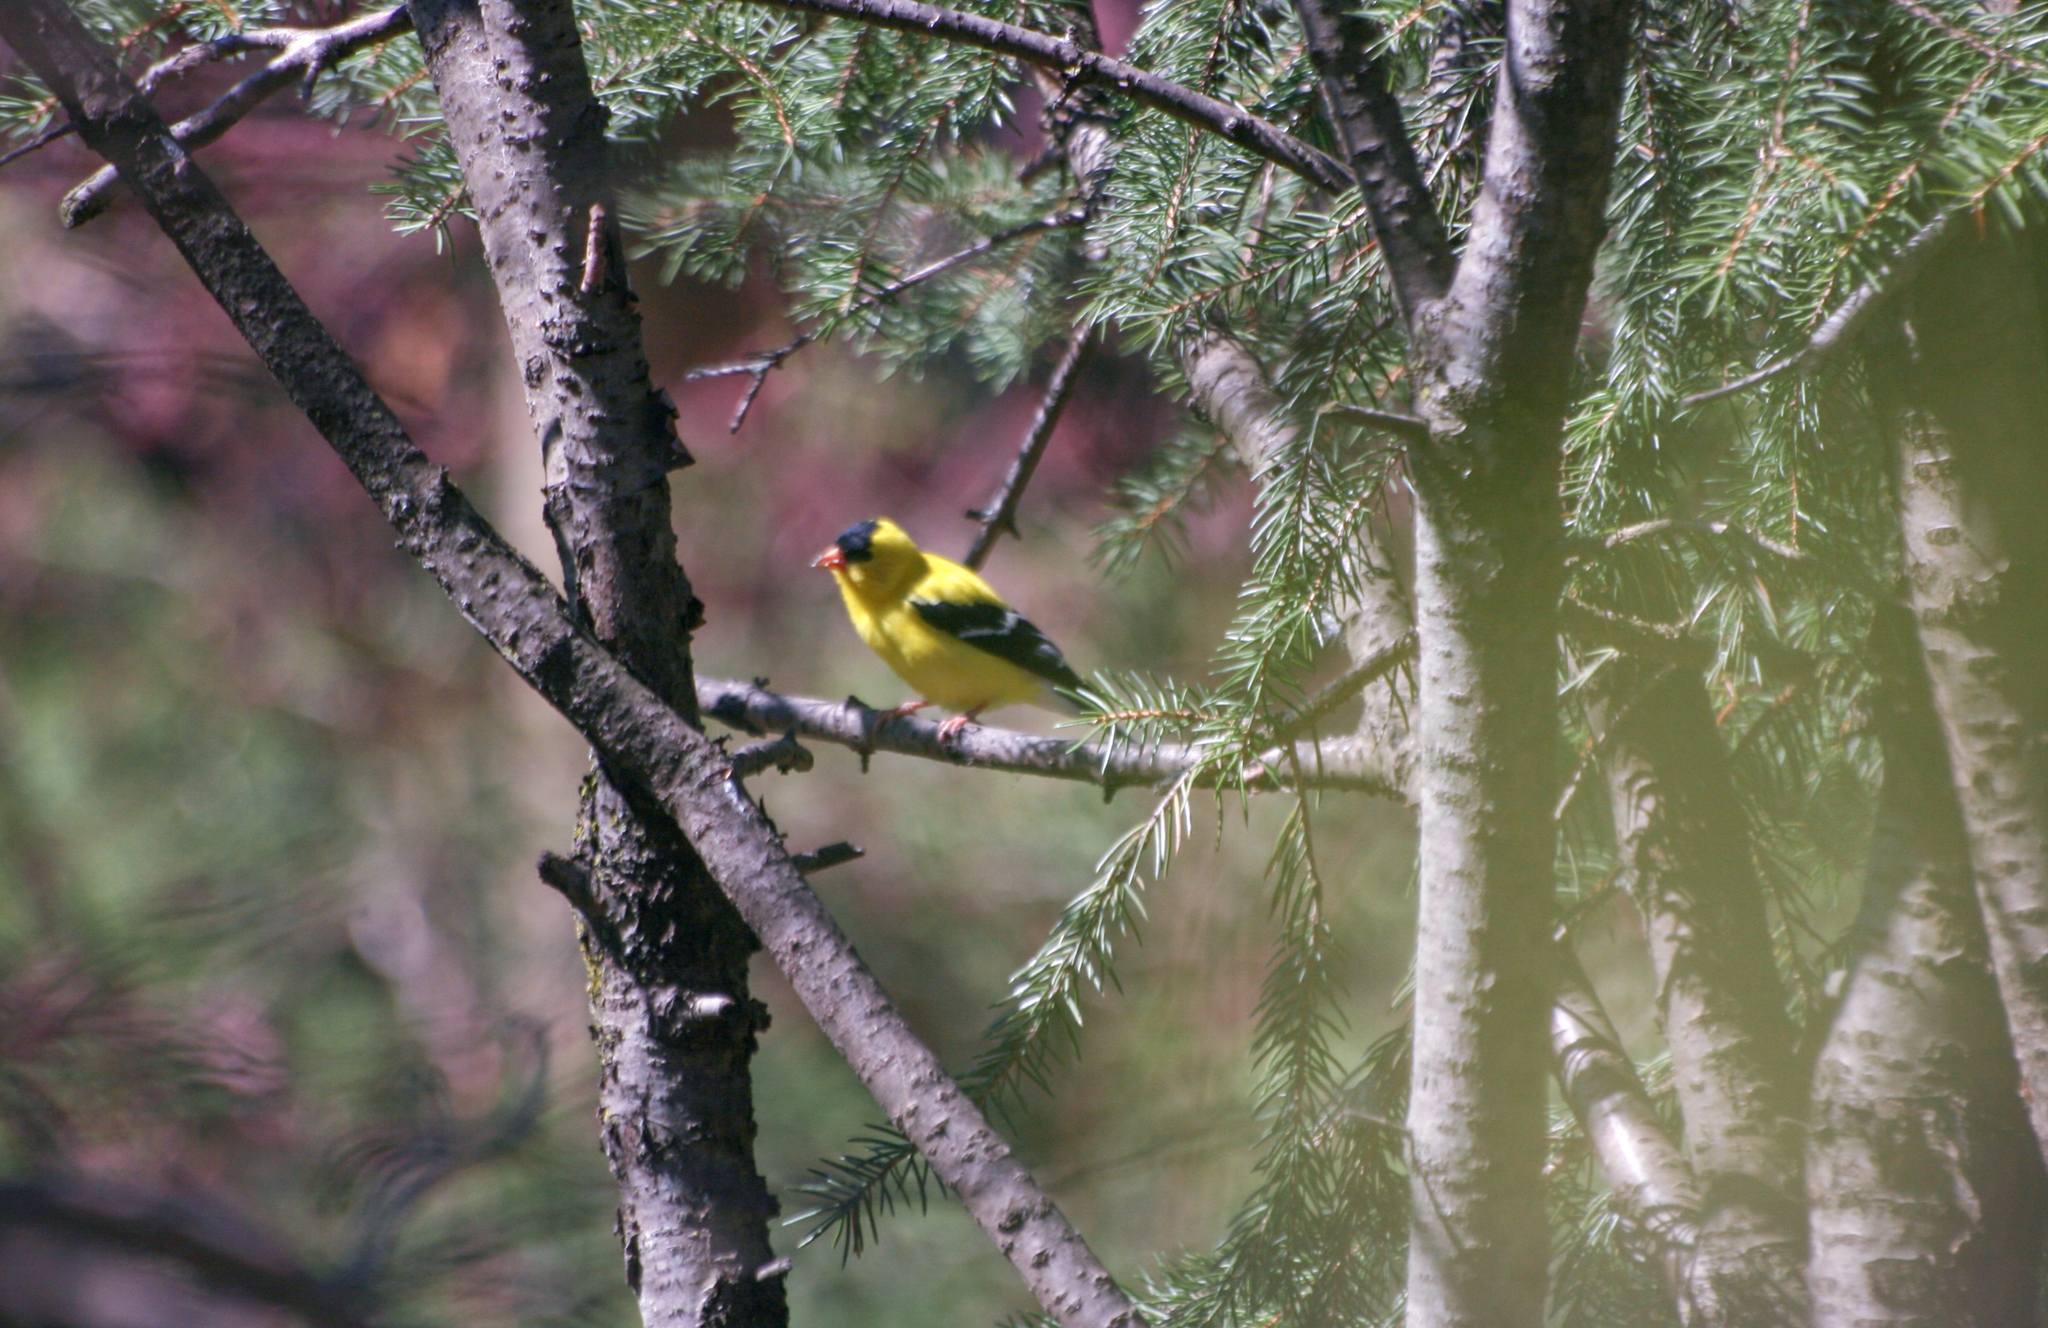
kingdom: Animalia
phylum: Chordata
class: Aves
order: Passeriformes
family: Fringillidae
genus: Spinus
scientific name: Spinus tristis
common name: American goldfinch
